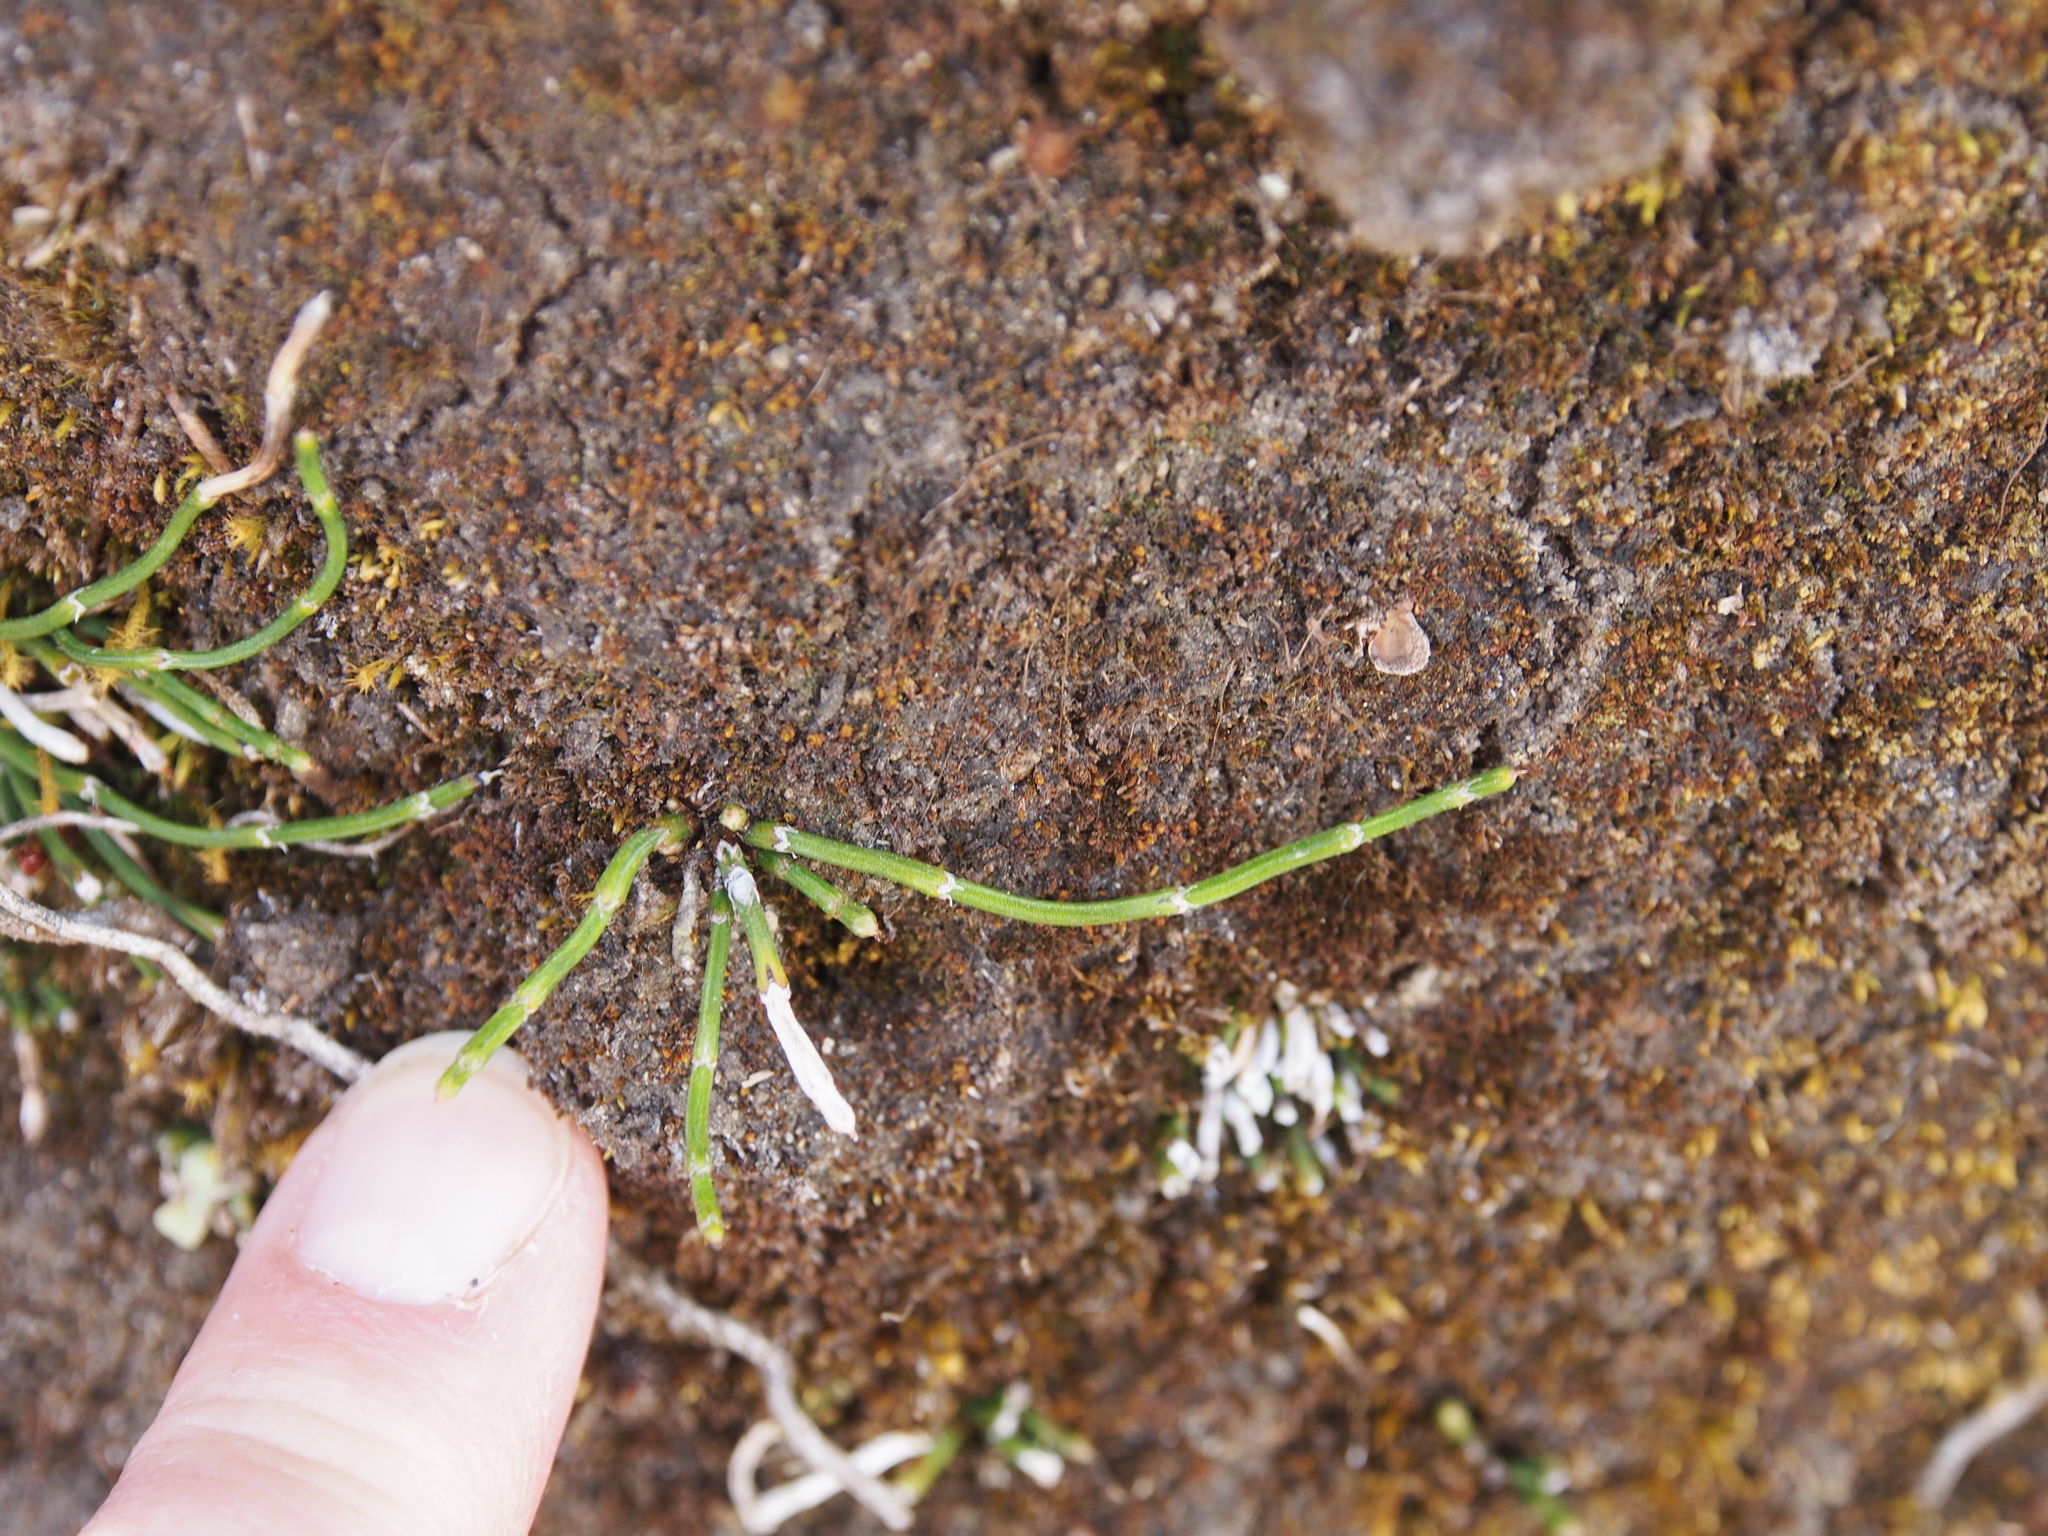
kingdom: Plantae
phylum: Tracheophyta
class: Polypodiopsida
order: Equisetales
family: Equisetaceae
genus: Equisetum
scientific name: Equisetum bogotense
